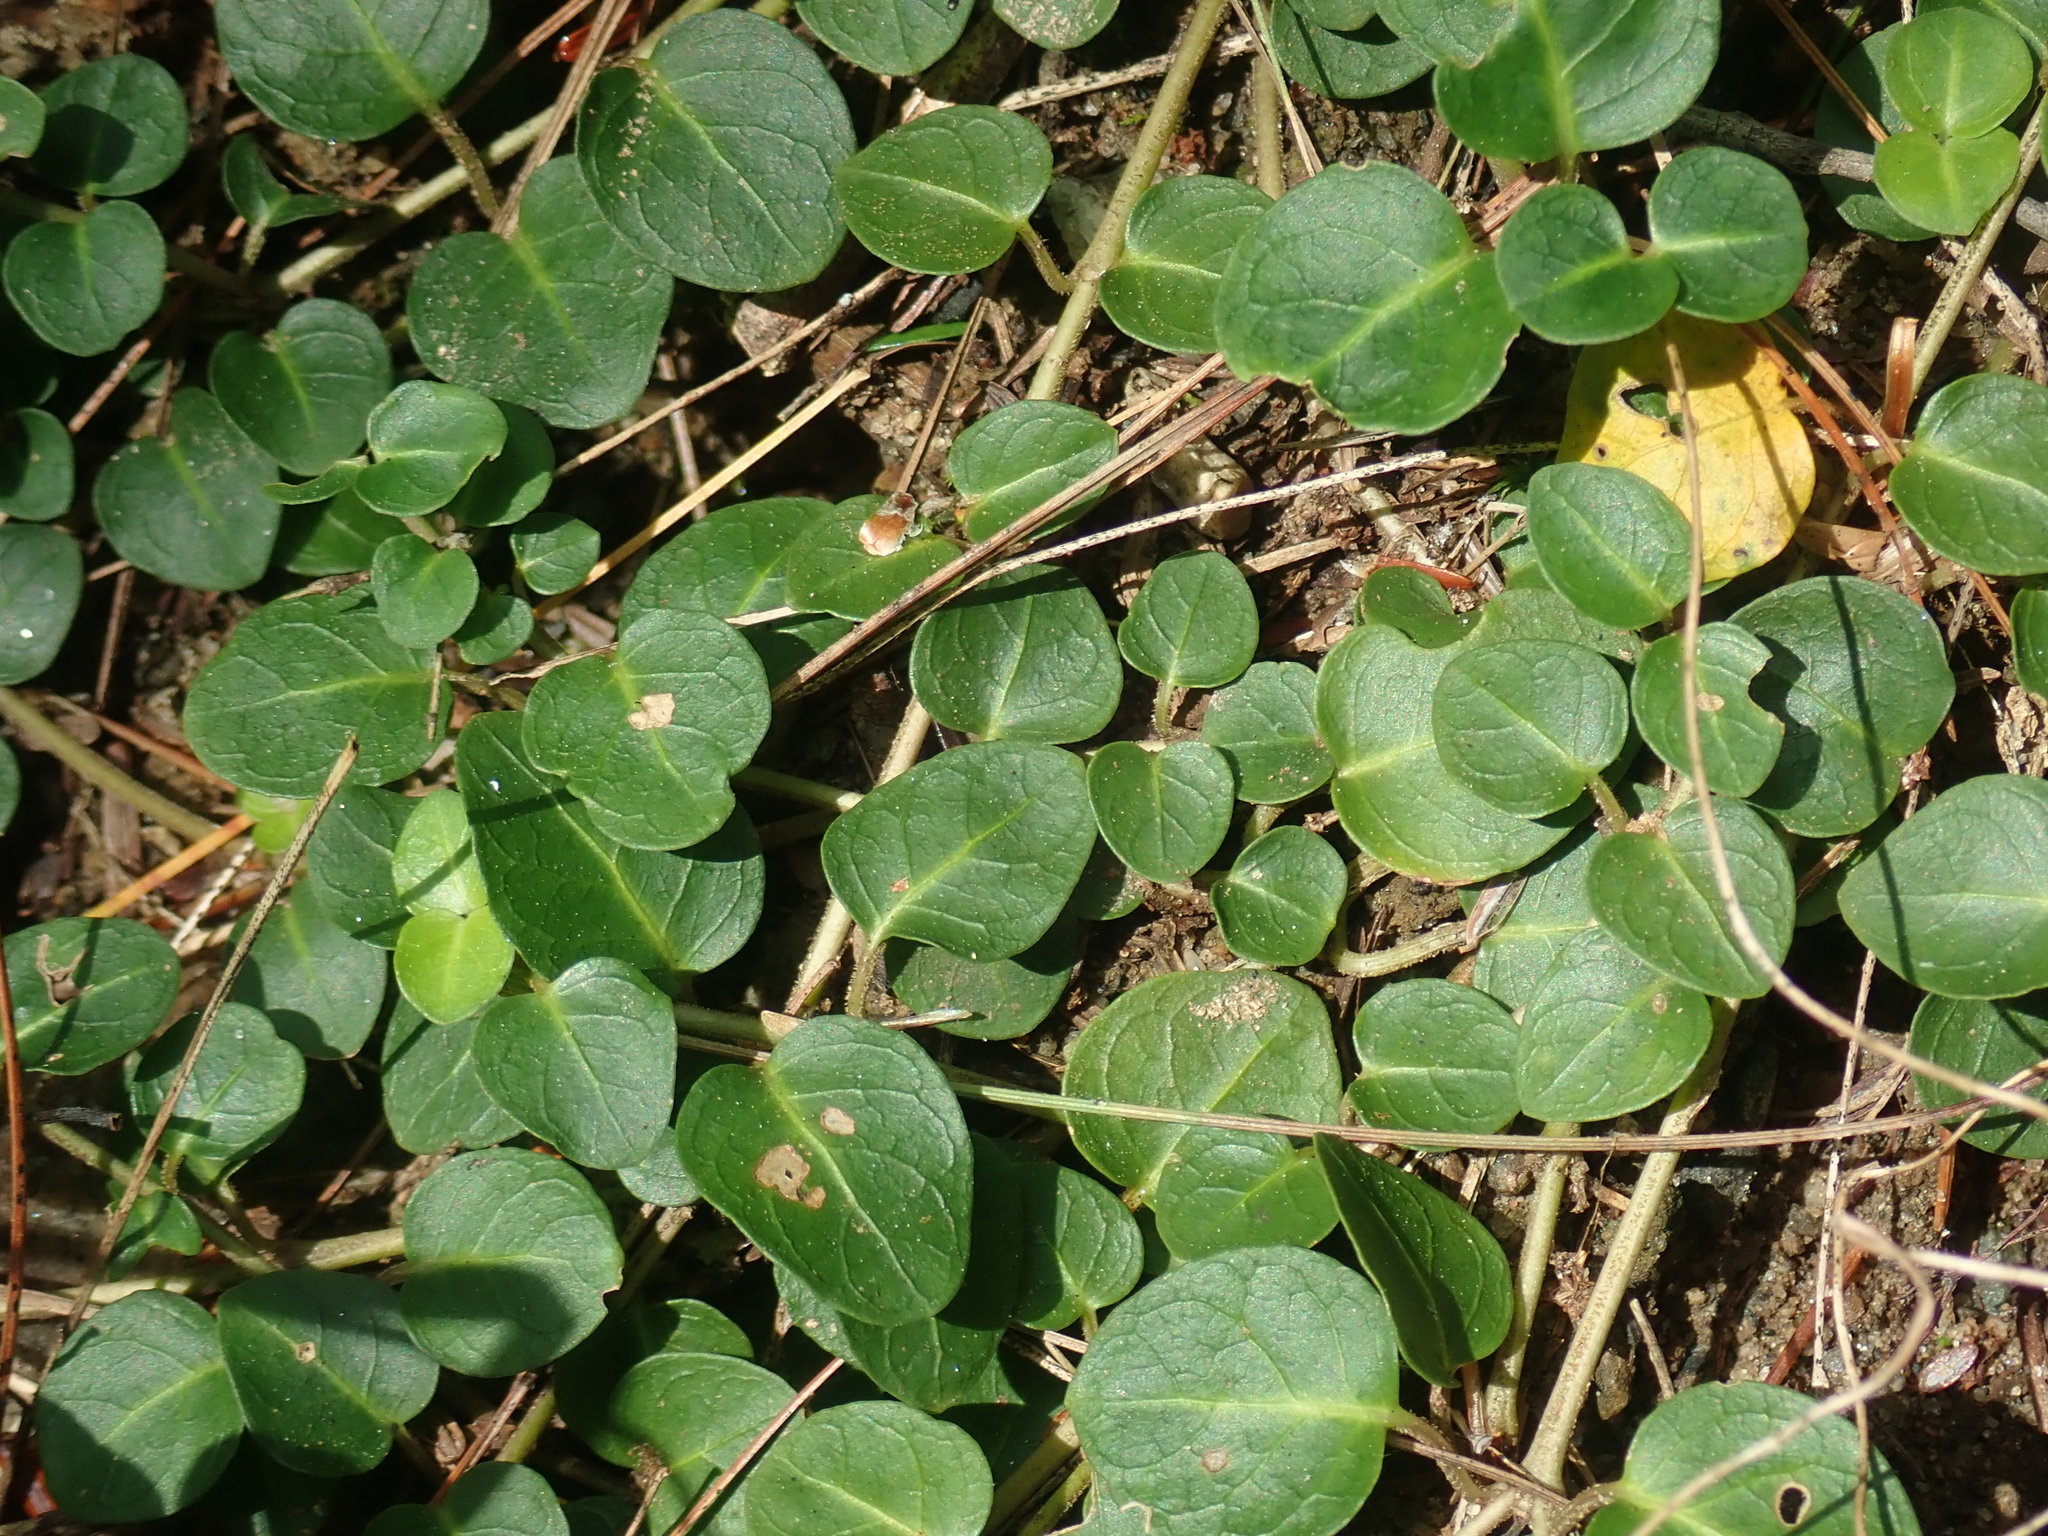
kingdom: Plantae
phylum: Tracheophyta
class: Magnoliopsida
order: Gentianales
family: Rubiaceae
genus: Mitchella
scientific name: Mitchella repens
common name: Partridge-berry
